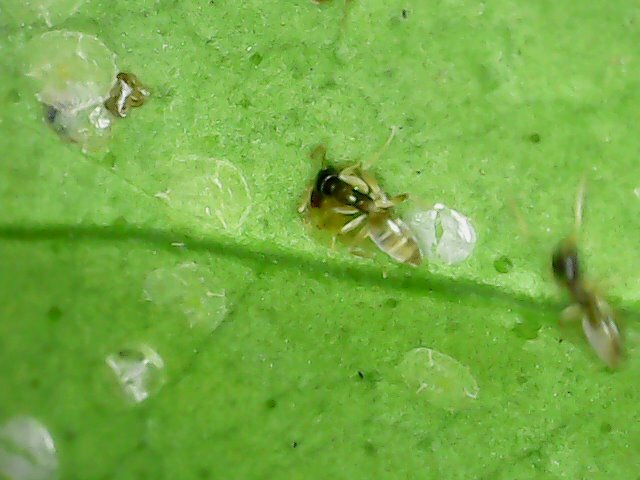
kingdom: Animalia
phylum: Arthropoda
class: Insecta
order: Hymenoptera
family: Formicidae
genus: Tapinoma
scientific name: Tapinoma melanocephalum
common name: Ghost ant
